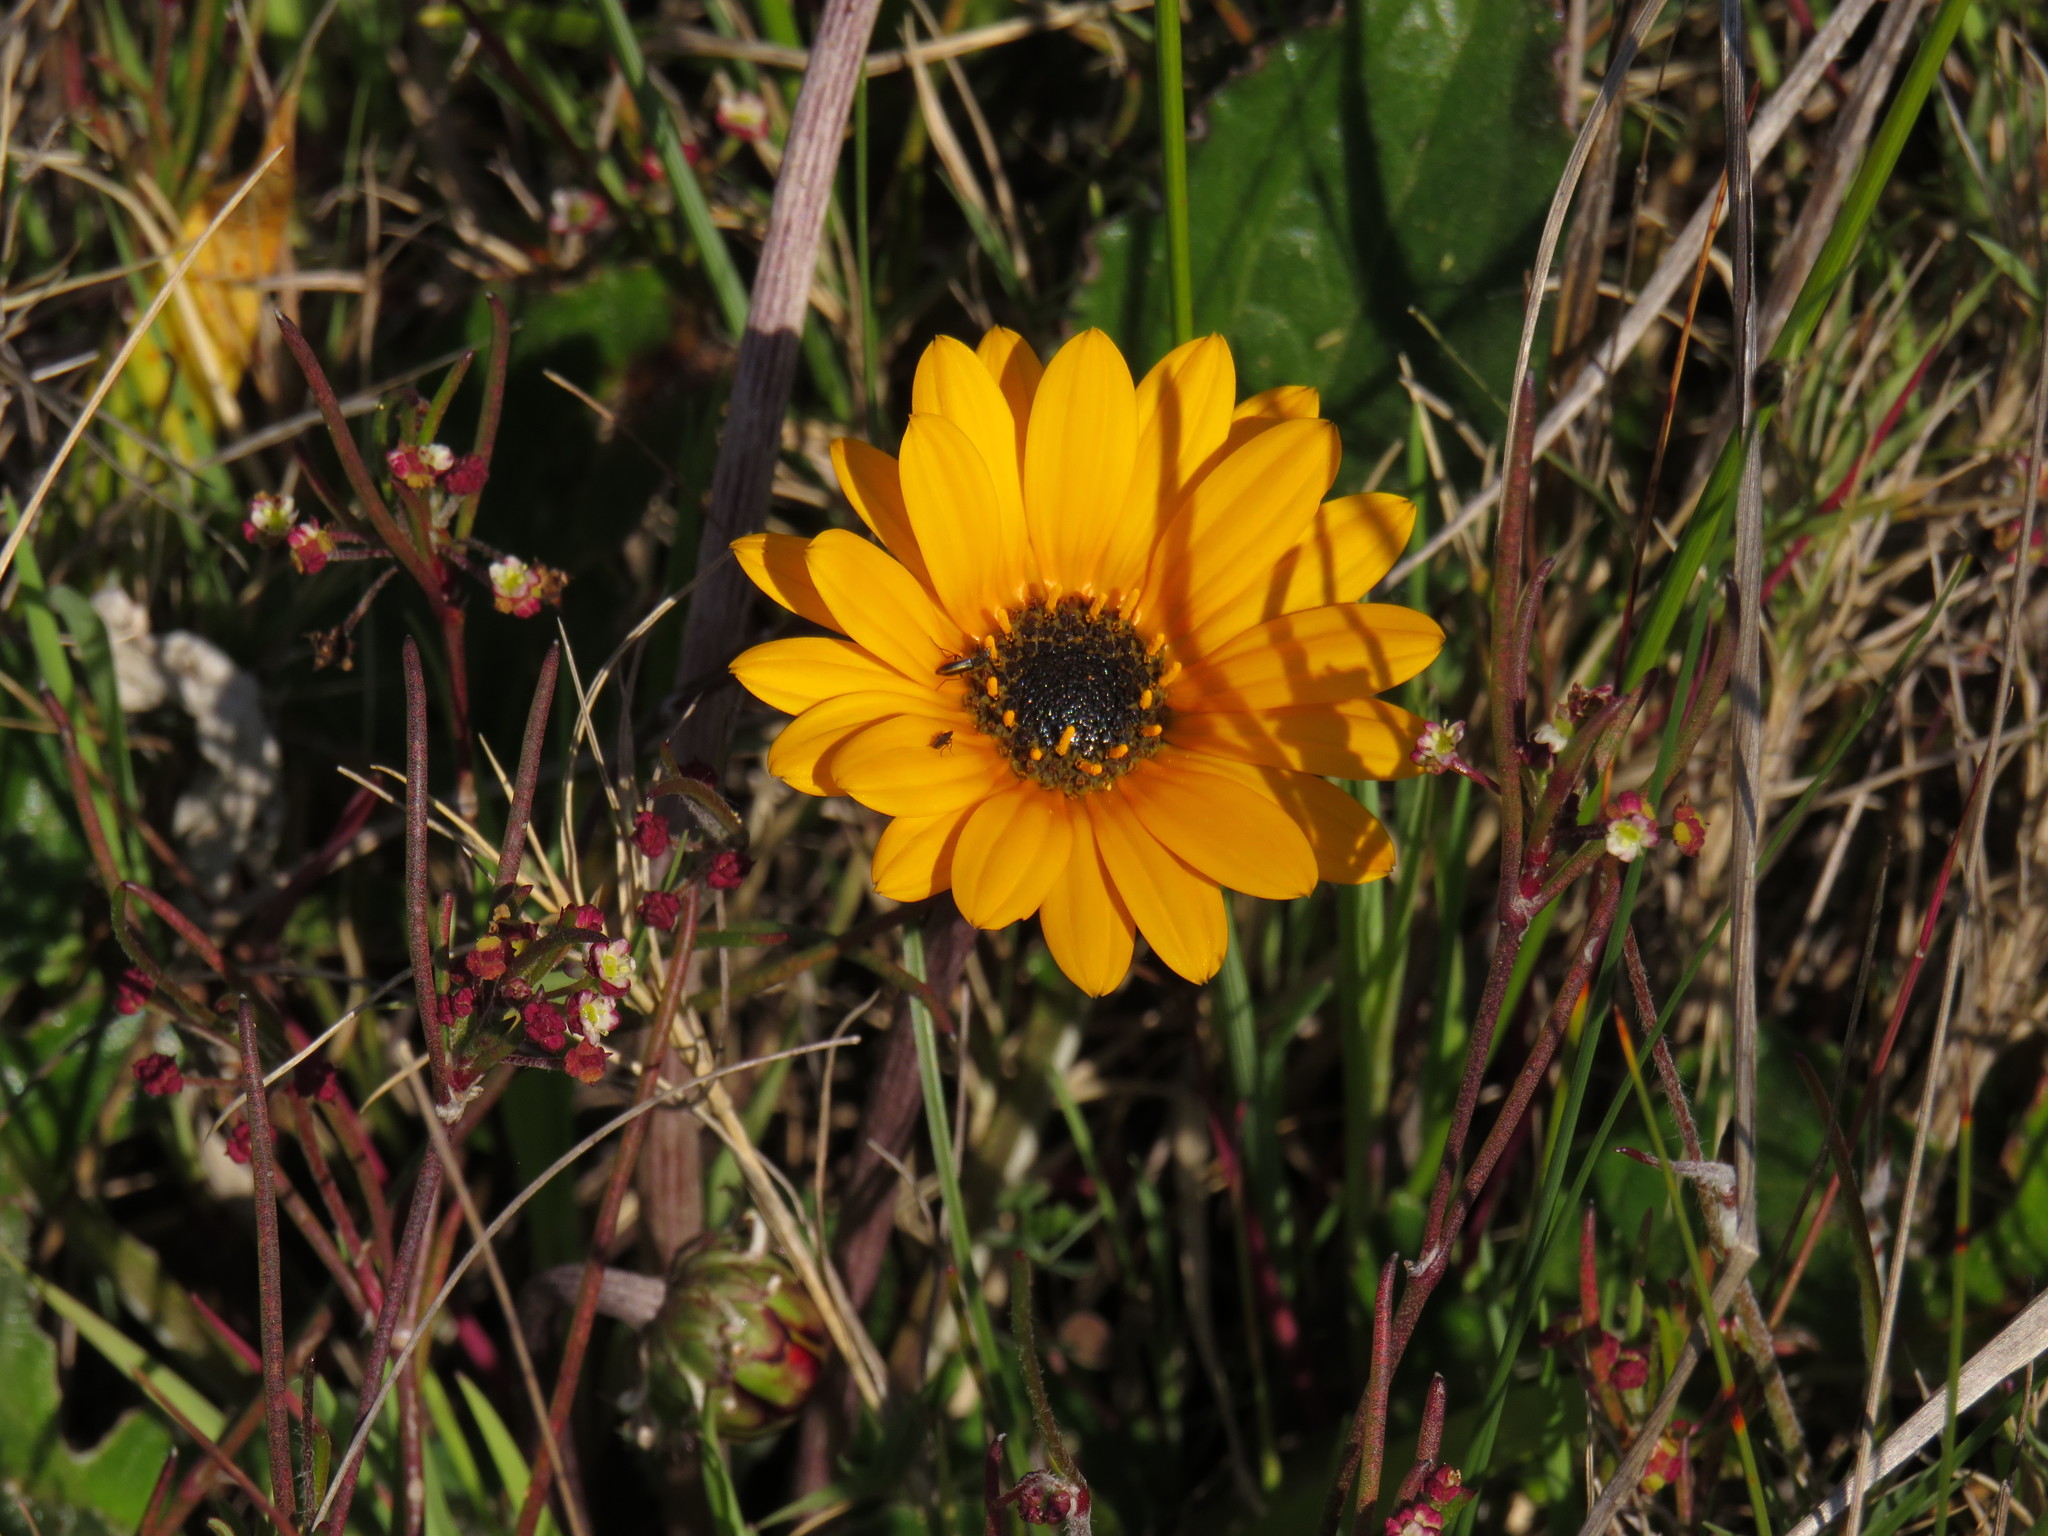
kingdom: Plantae
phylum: Tracheophyta
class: Magnoliopsida
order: Asterales
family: Asteraceae
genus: Arctotis
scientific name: Arctotis acaulis
